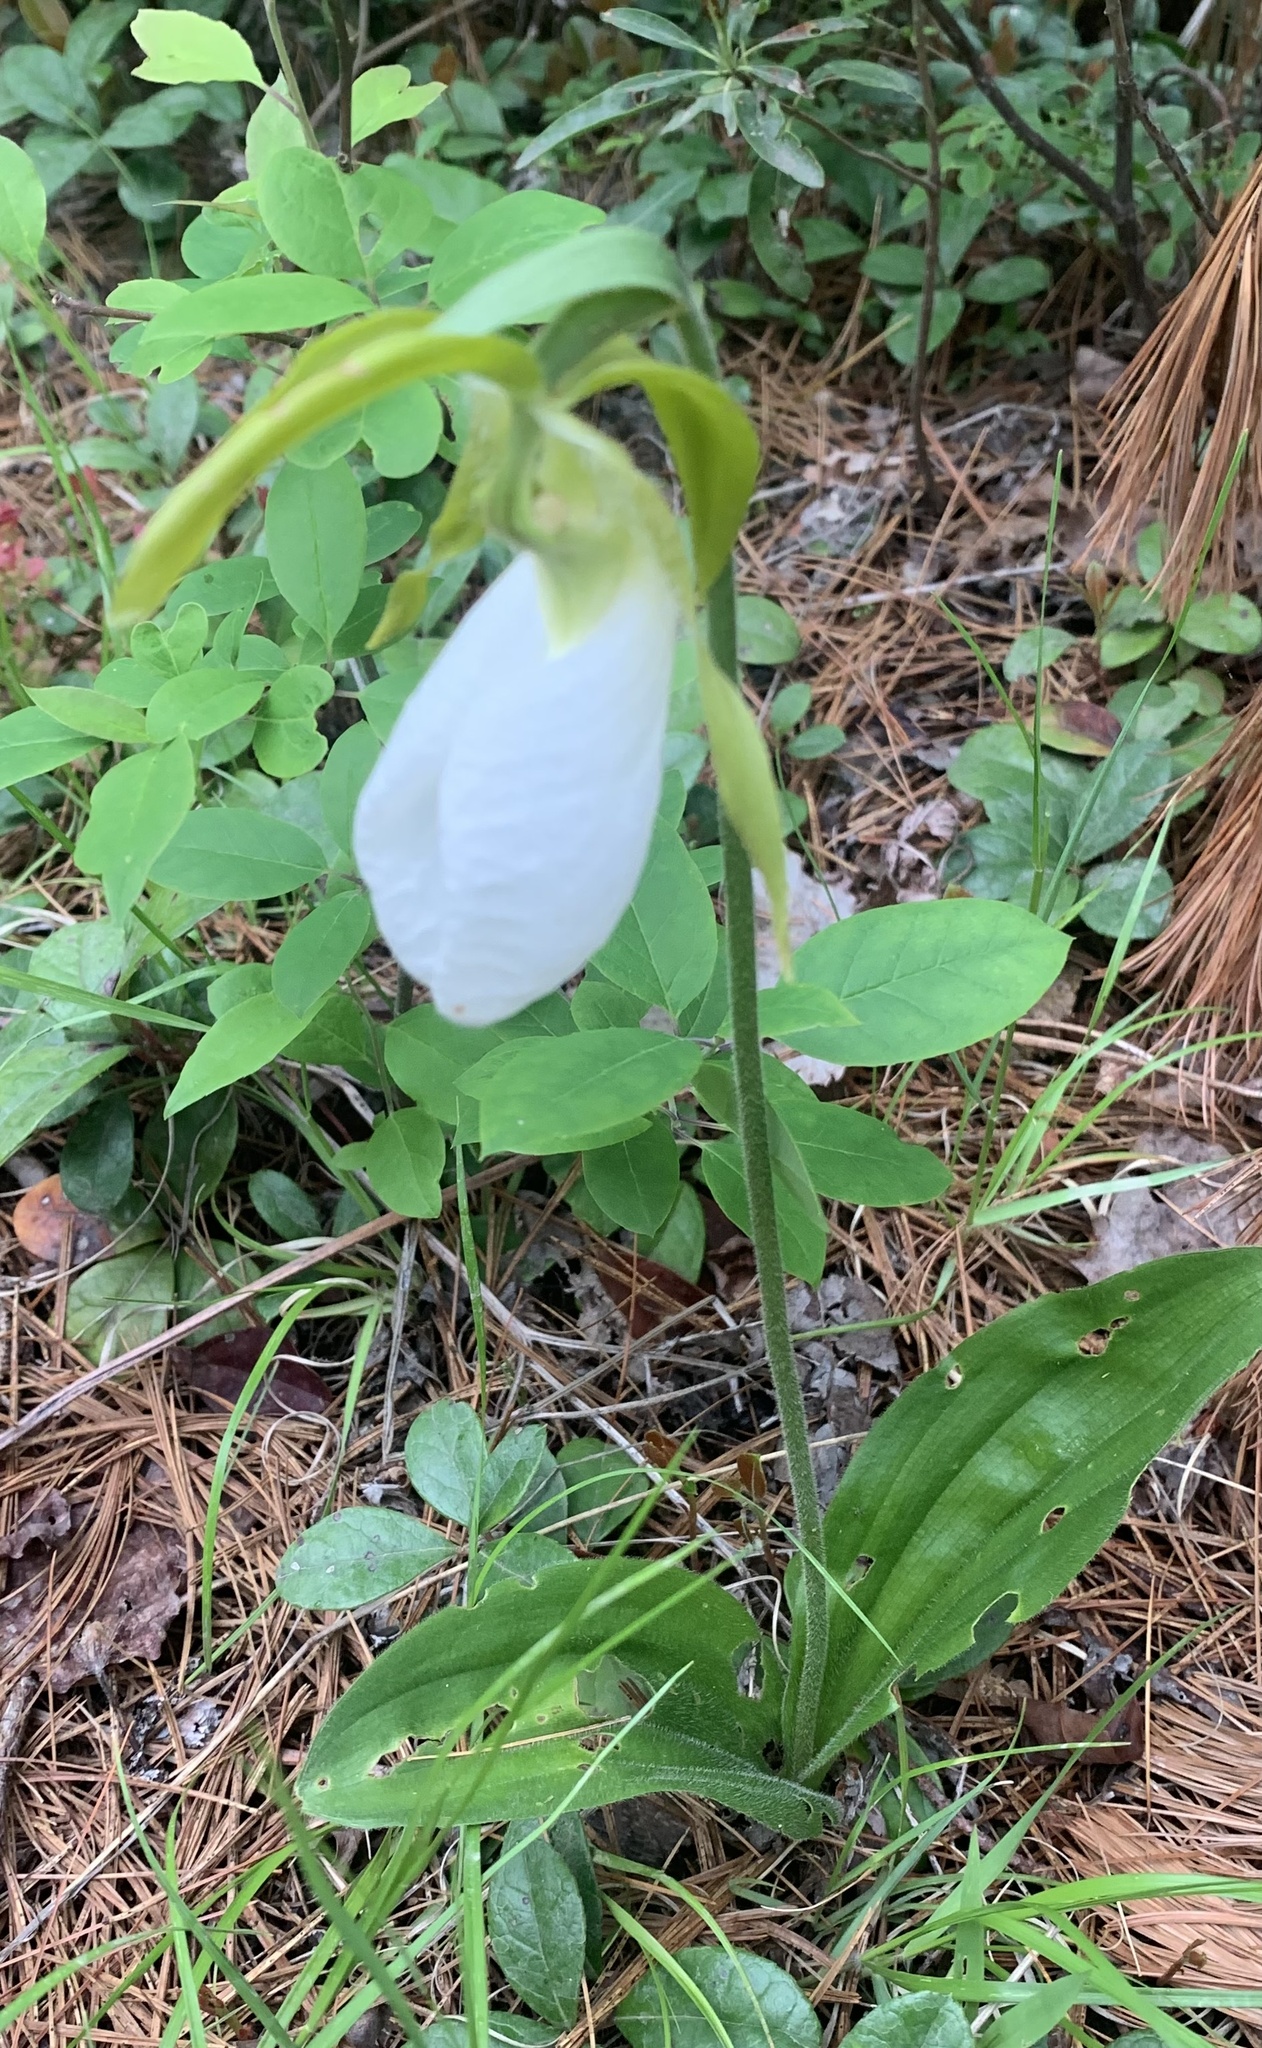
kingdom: Plantae
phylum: Tracheophyta
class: Liliopsida
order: Asparagales
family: Orchidaceae
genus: Cypripedium
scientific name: Cypripedium acaule
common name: Pink lady's-slipper
